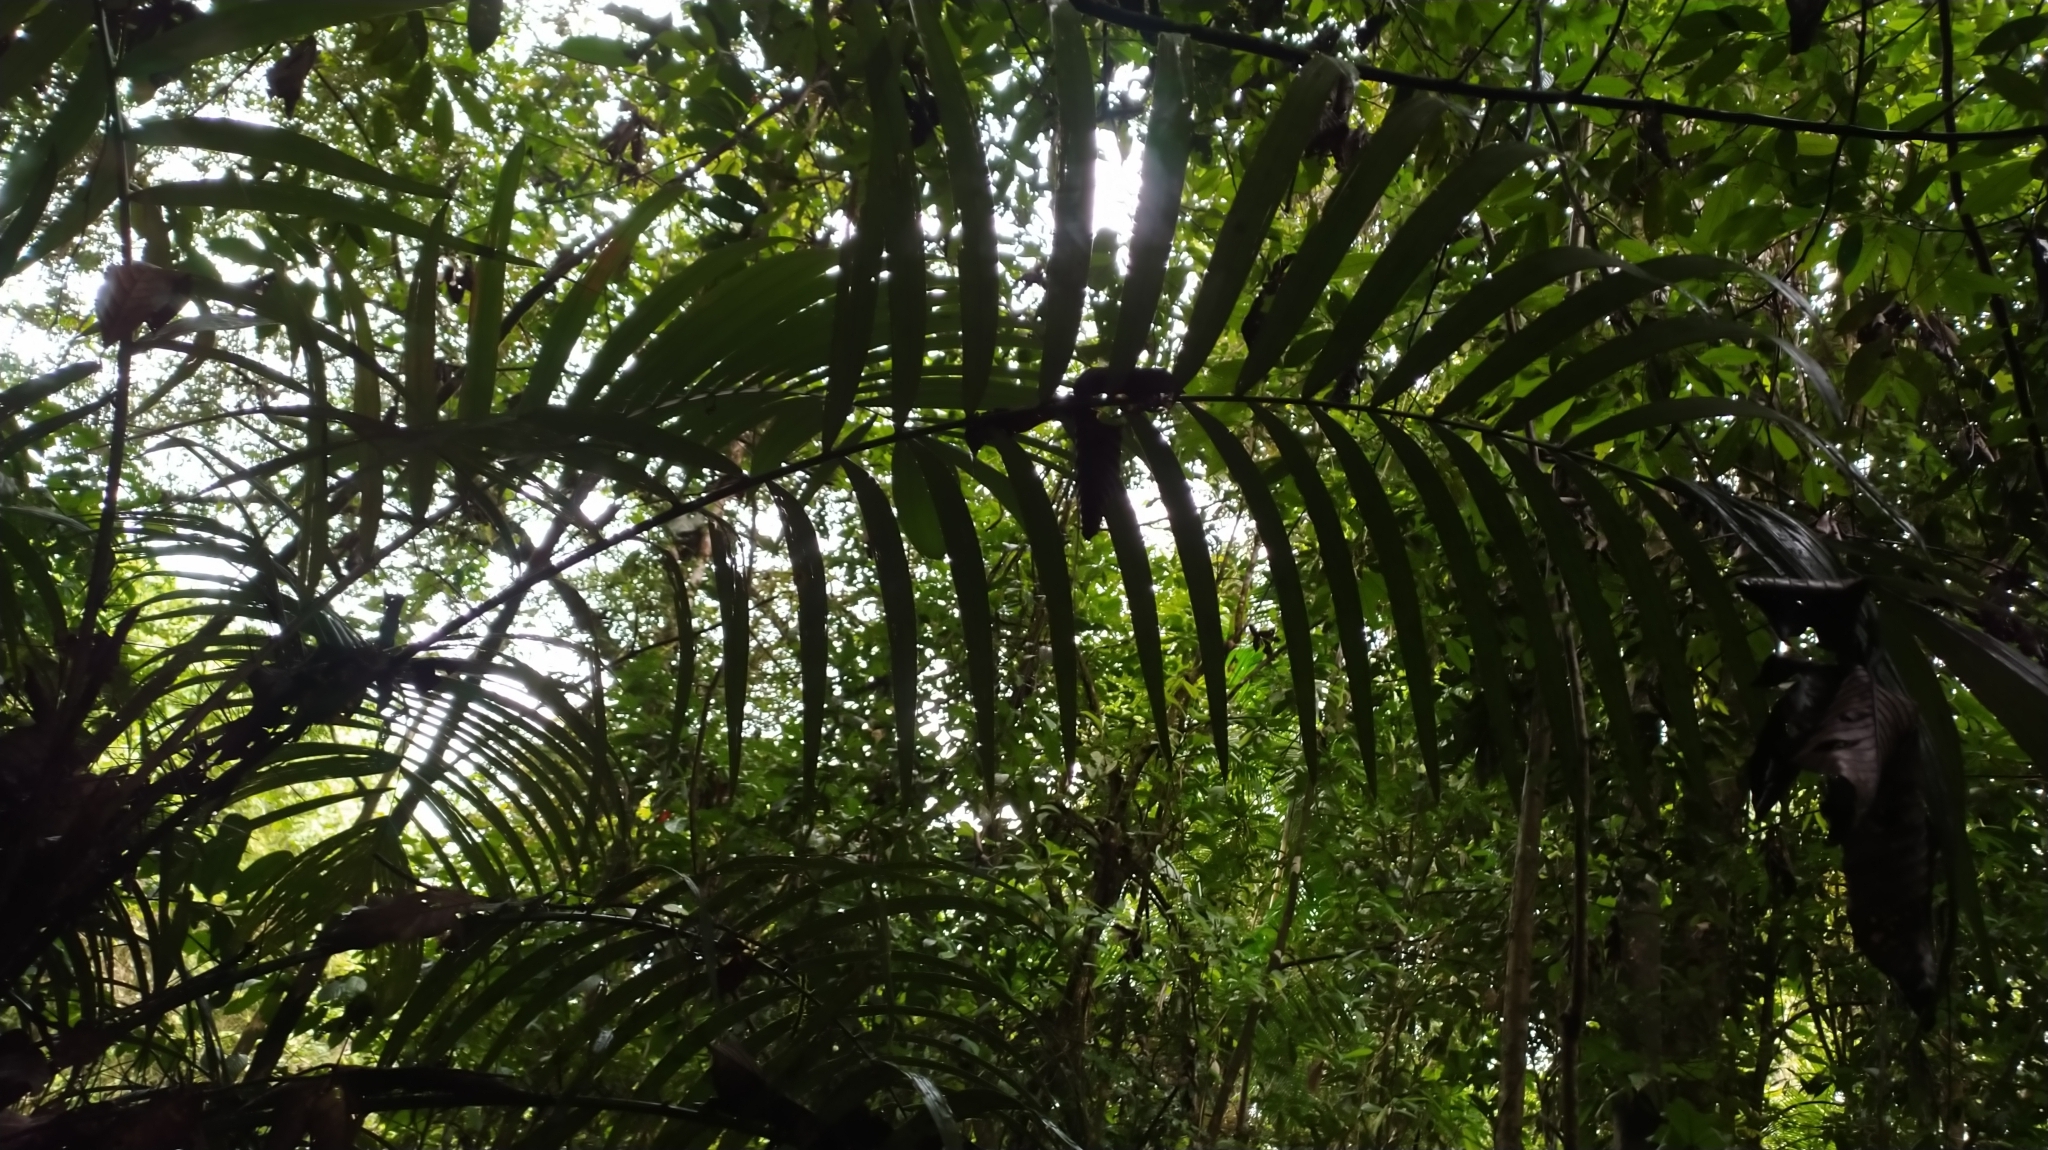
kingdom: Plantae
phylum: Tracheophyta
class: Liliopsida
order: Arecales
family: Arecaceae
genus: Astrocaryum
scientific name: Astrocaryum aculeatum
